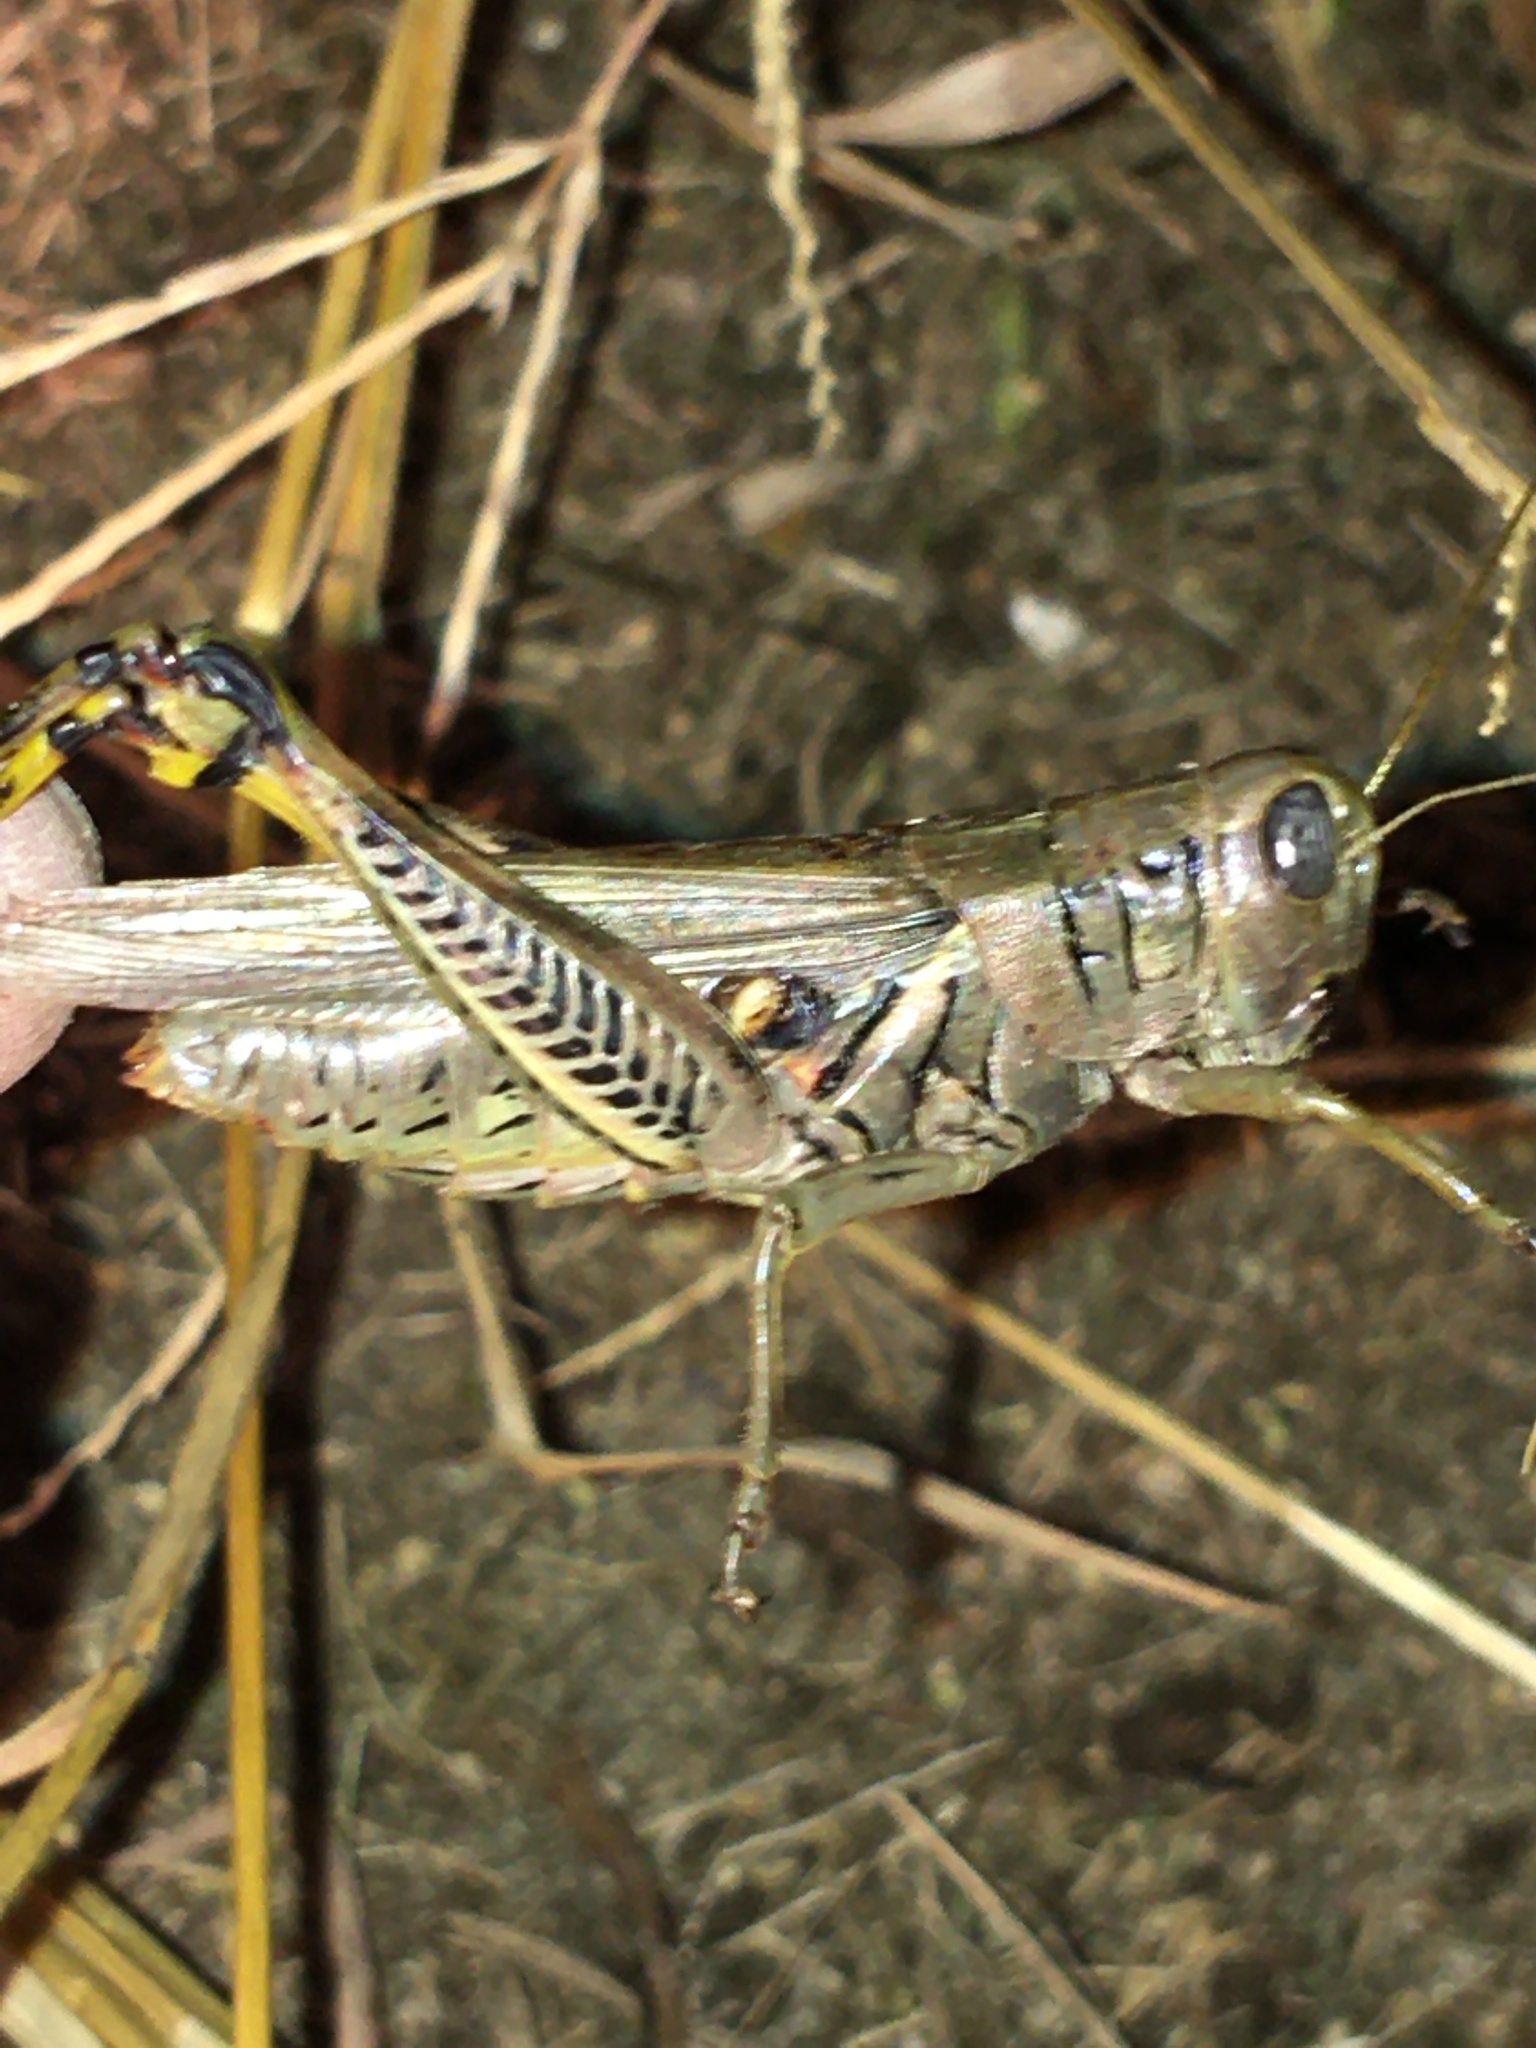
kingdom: Animalia
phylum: Arthropoda
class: Insecta
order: Orthoptera
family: Acrididae
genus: Melanoplus
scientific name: Melanoplus differentialis
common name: Differential grasshopper
